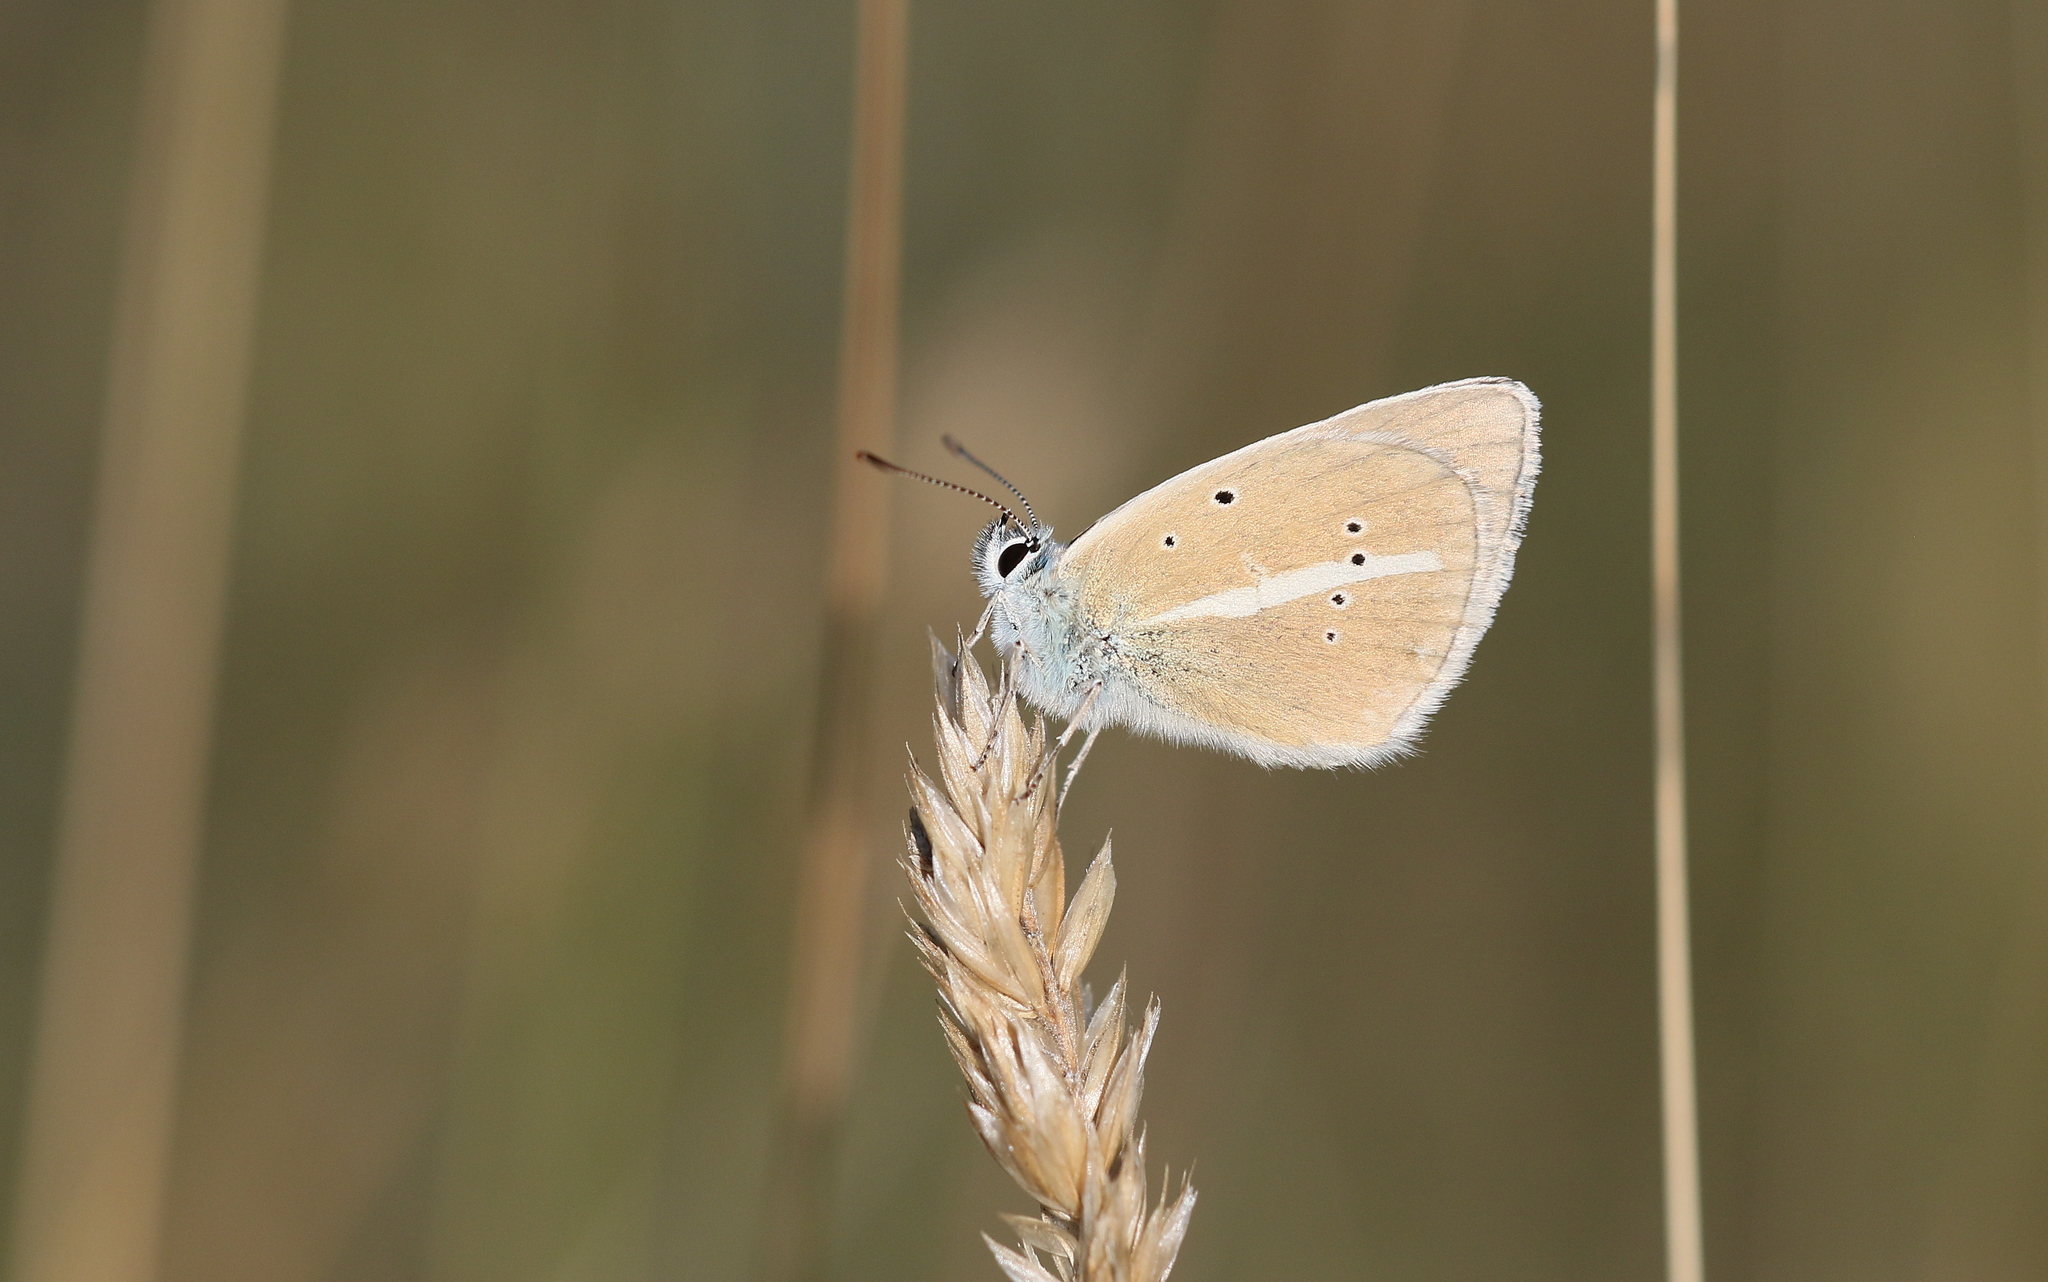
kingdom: Animalia
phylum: Arthropoda
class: Insecta
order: Lepidoptera
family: Lycaenidae
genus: Agrodiaetus
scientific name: Agrodiaetus damon
